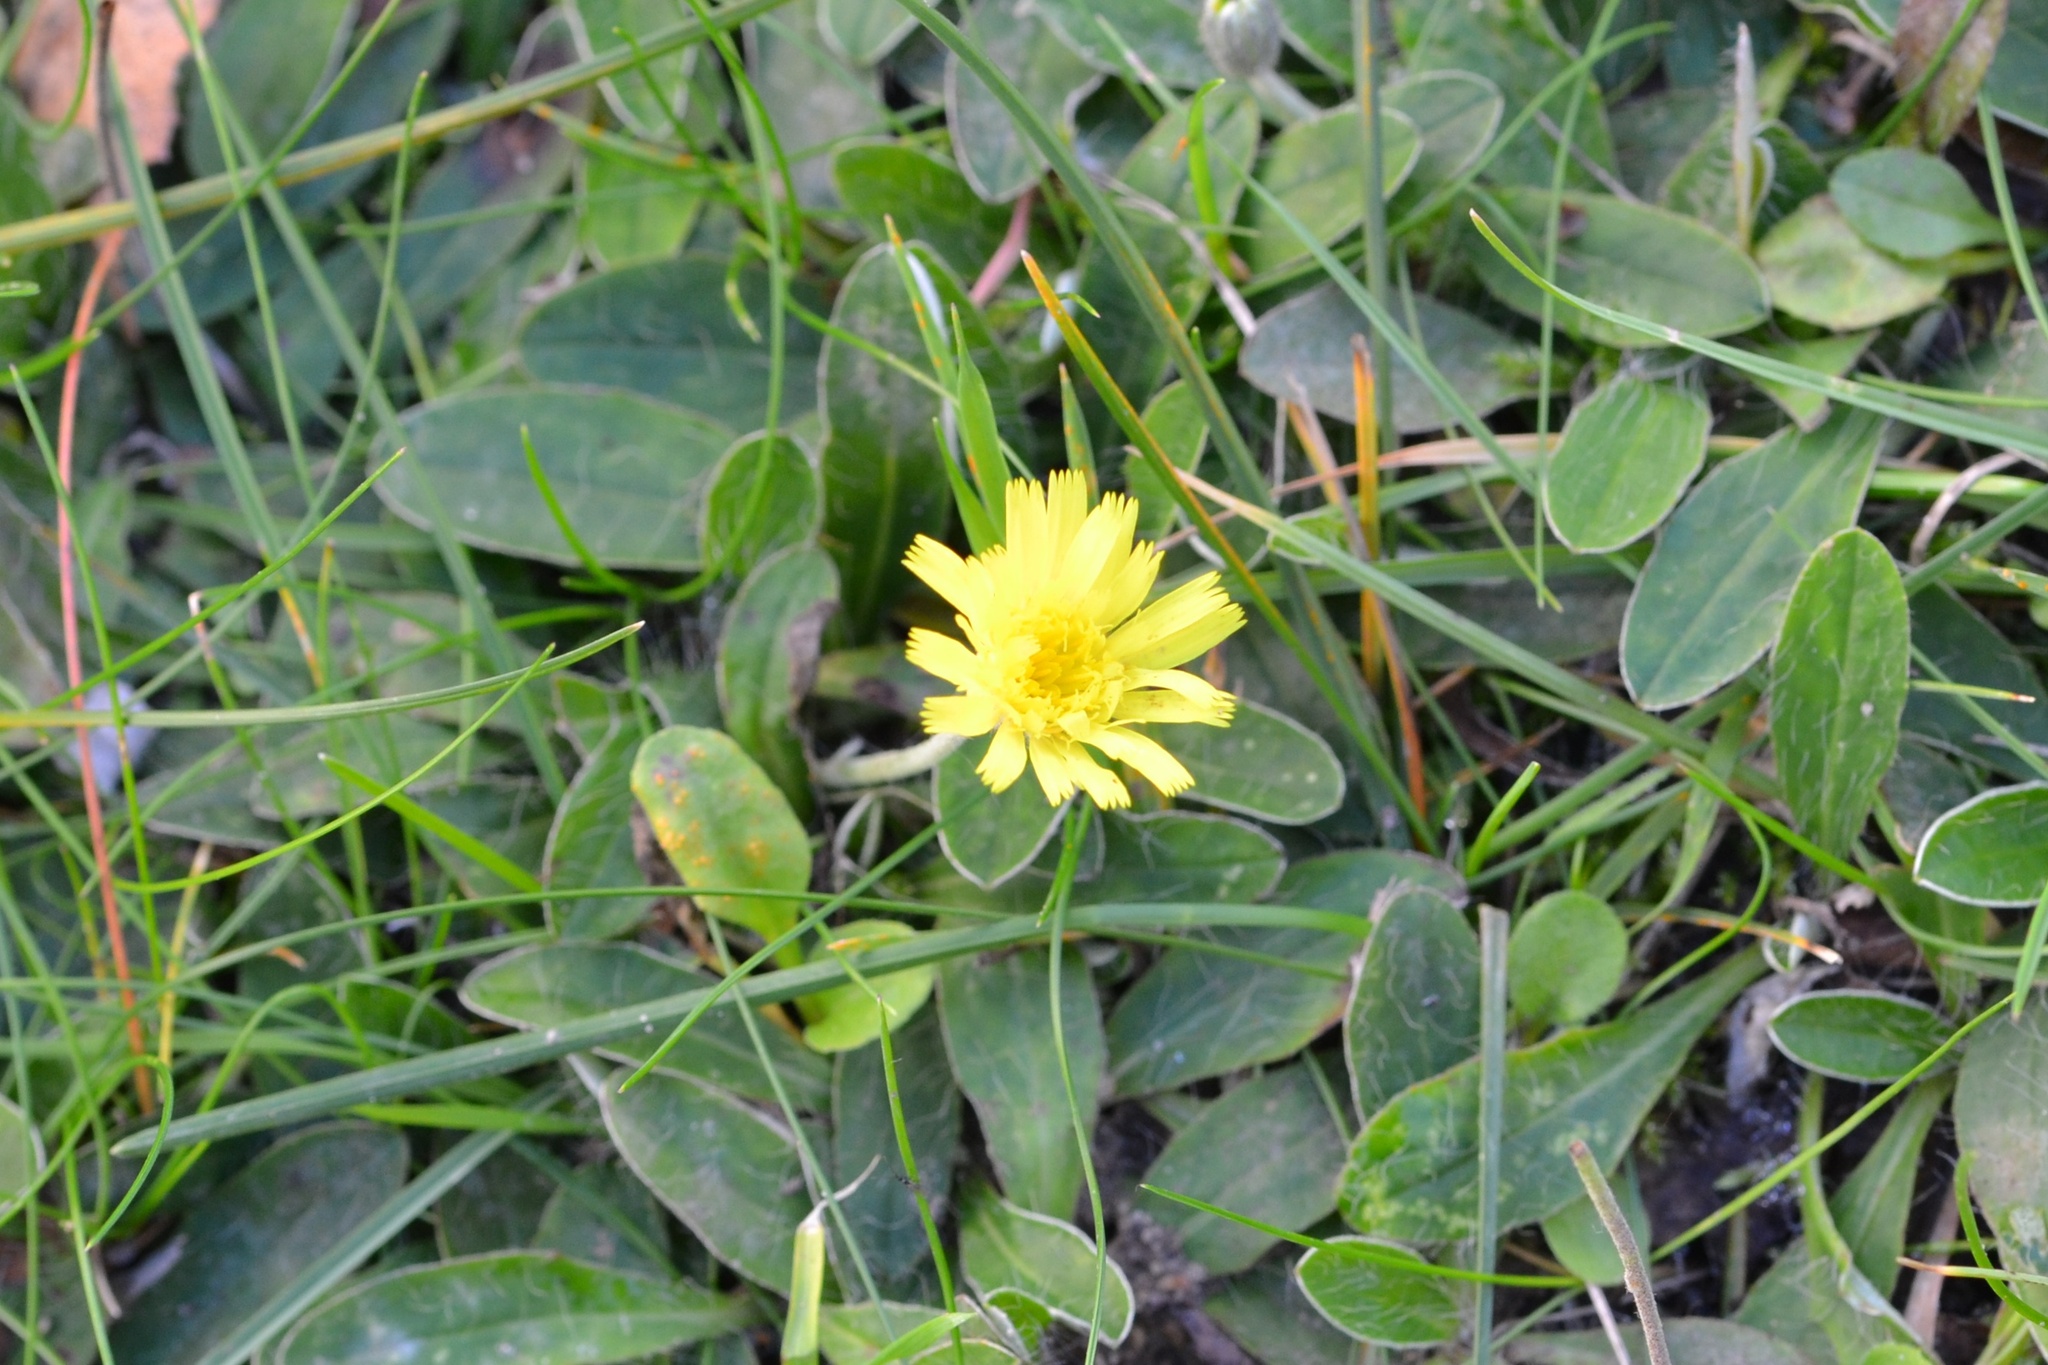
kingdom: Plantae
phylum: Tracheophyta
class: Magnoliopsida
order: Asterales
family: Asteraceae
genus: Pilosella
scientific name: Pilosella officinarum
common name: Mouse-ear hawkweed
